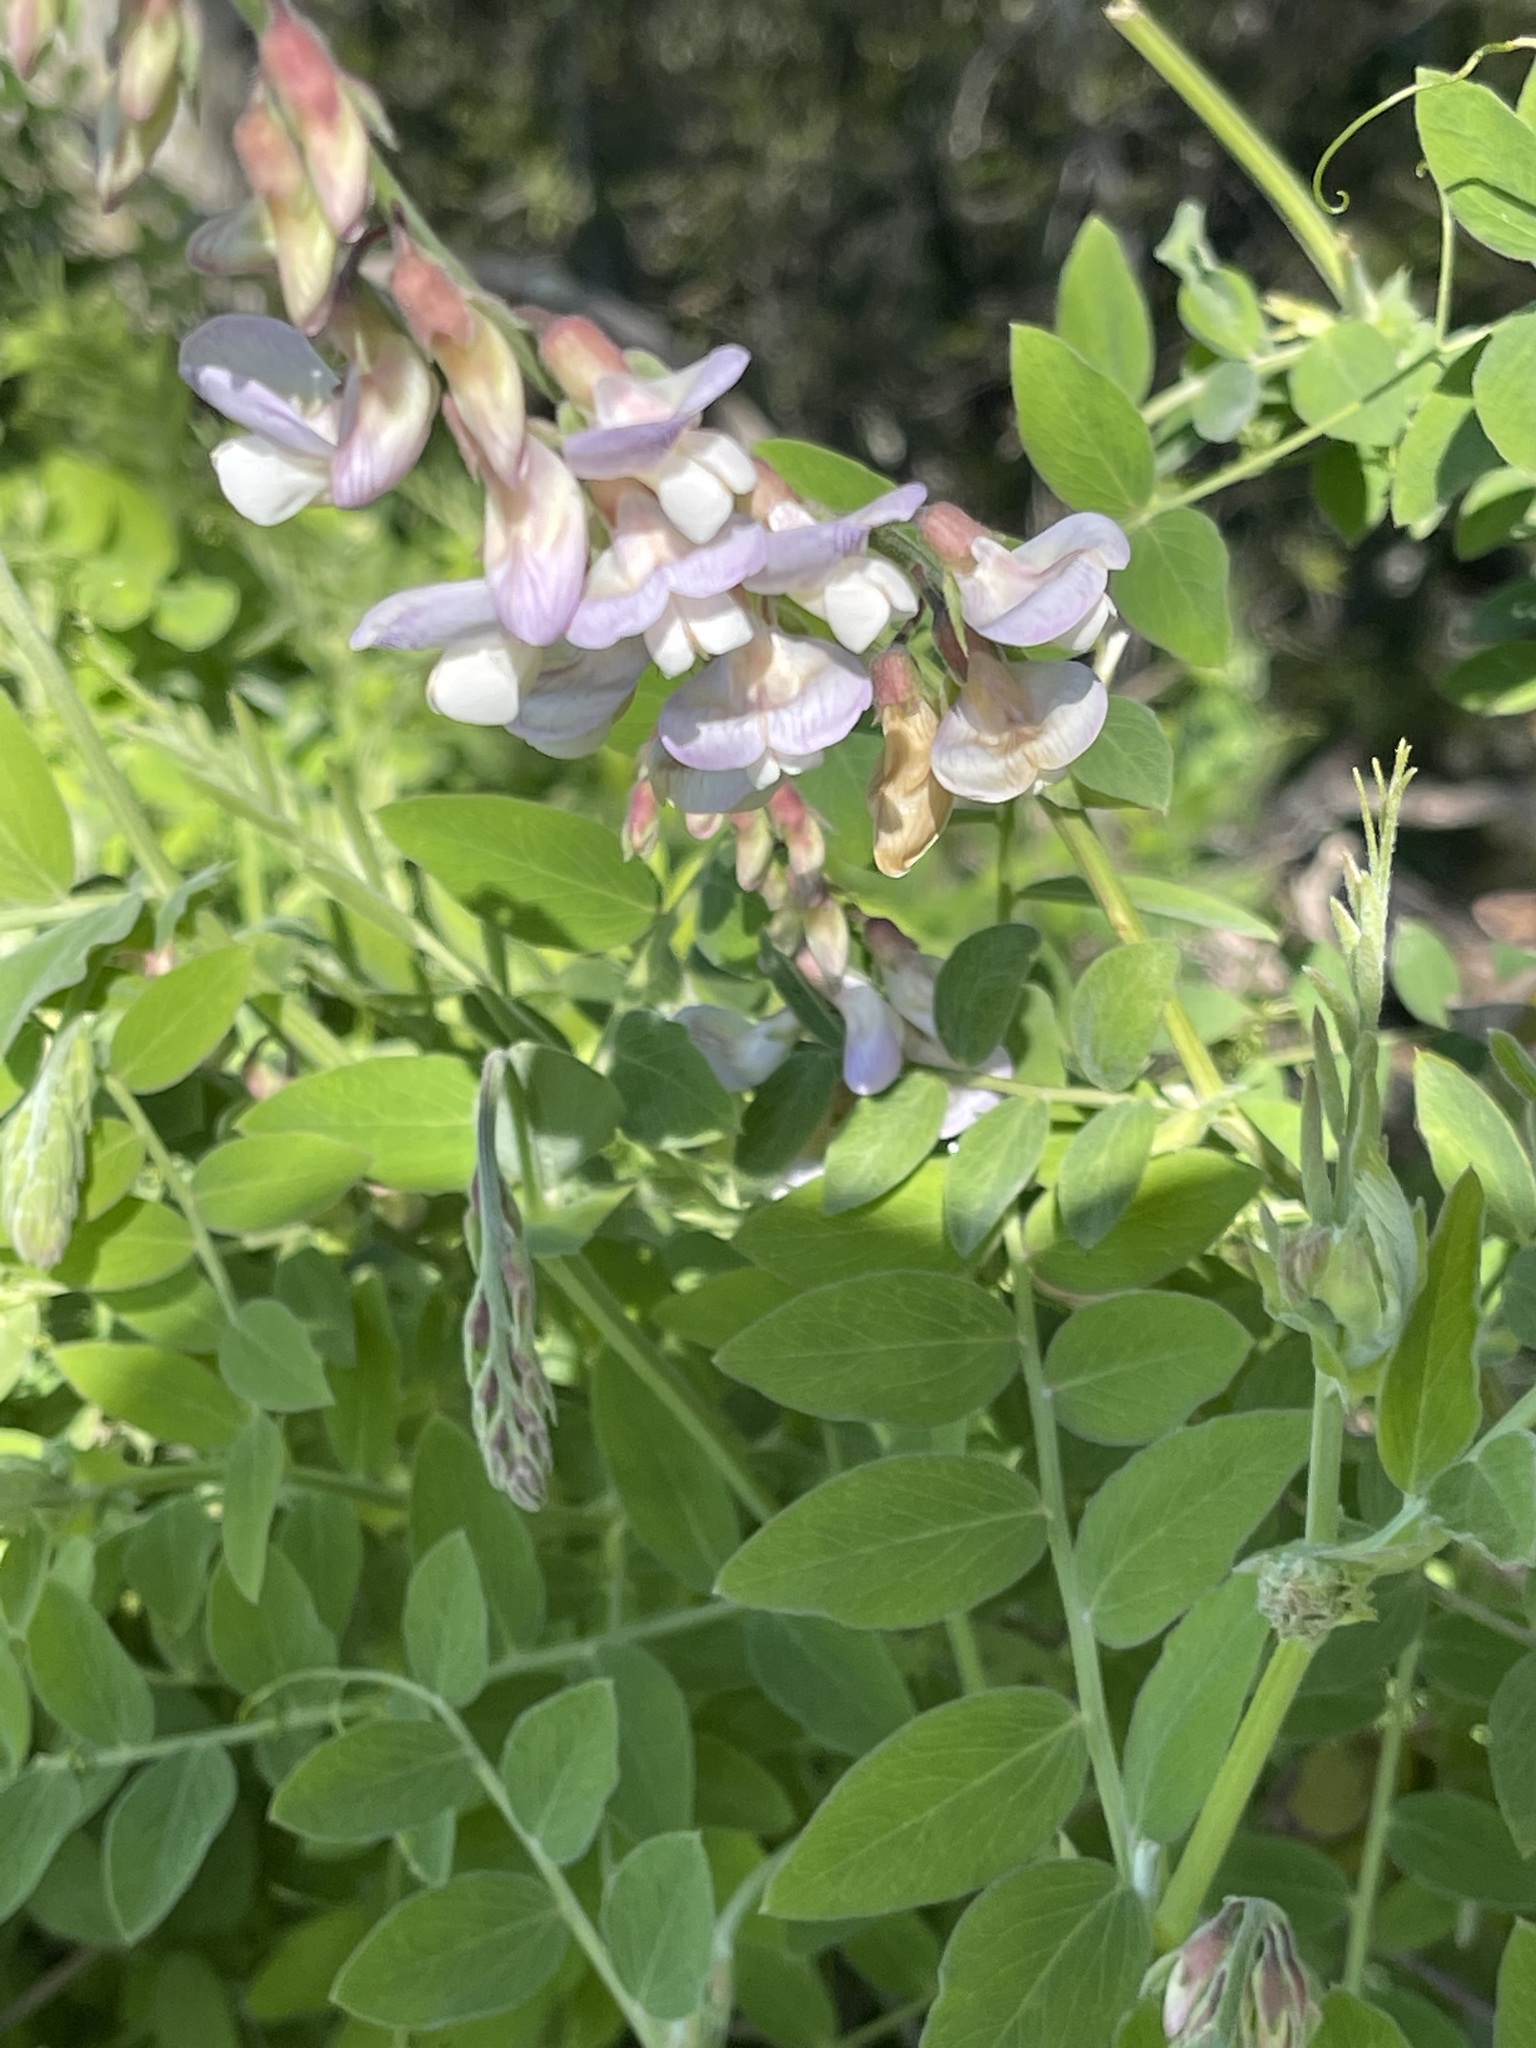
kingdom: Plantae
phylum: Tracheophyta
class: Magnoliopsida
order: Fabales
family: Fabaceae
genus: Lathyrus
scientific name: Lathyrus vestitus
